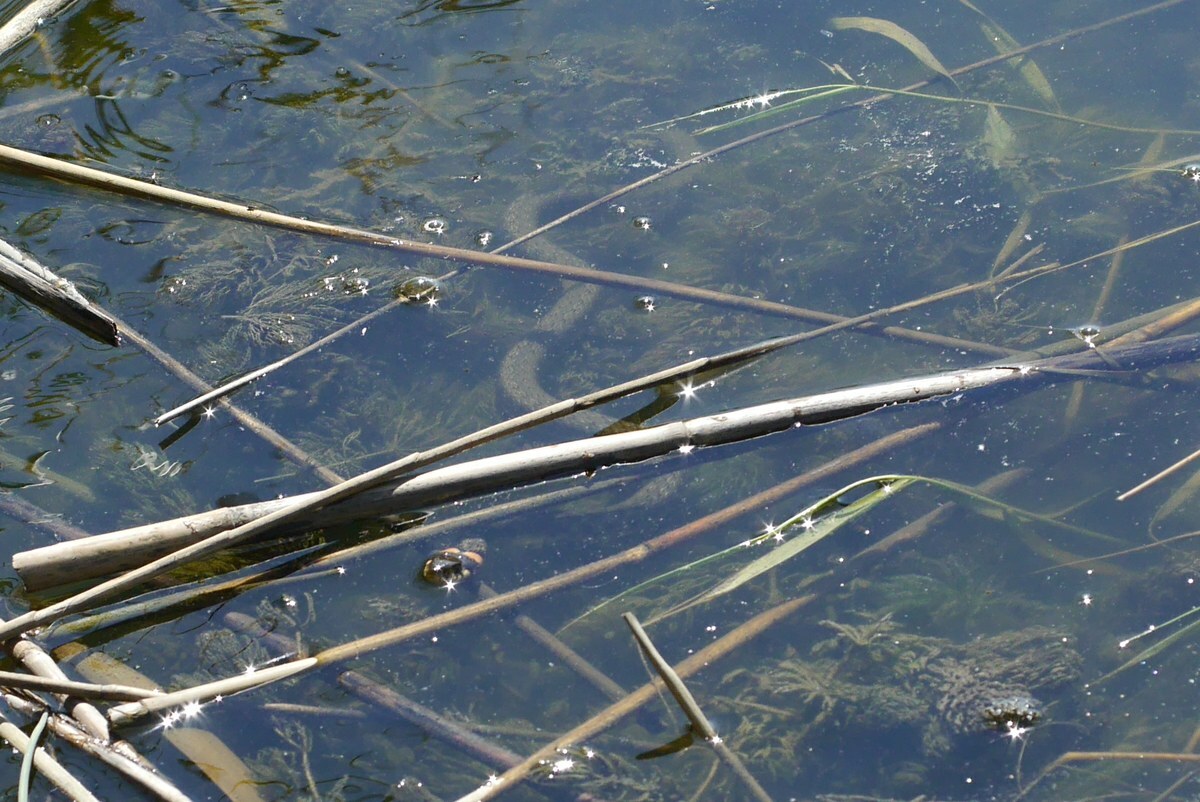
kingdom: Animalia
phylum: Chordata
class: Squamata
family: Colubridae
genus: Natrix
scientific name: Natrix natrix
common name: Grass snake
